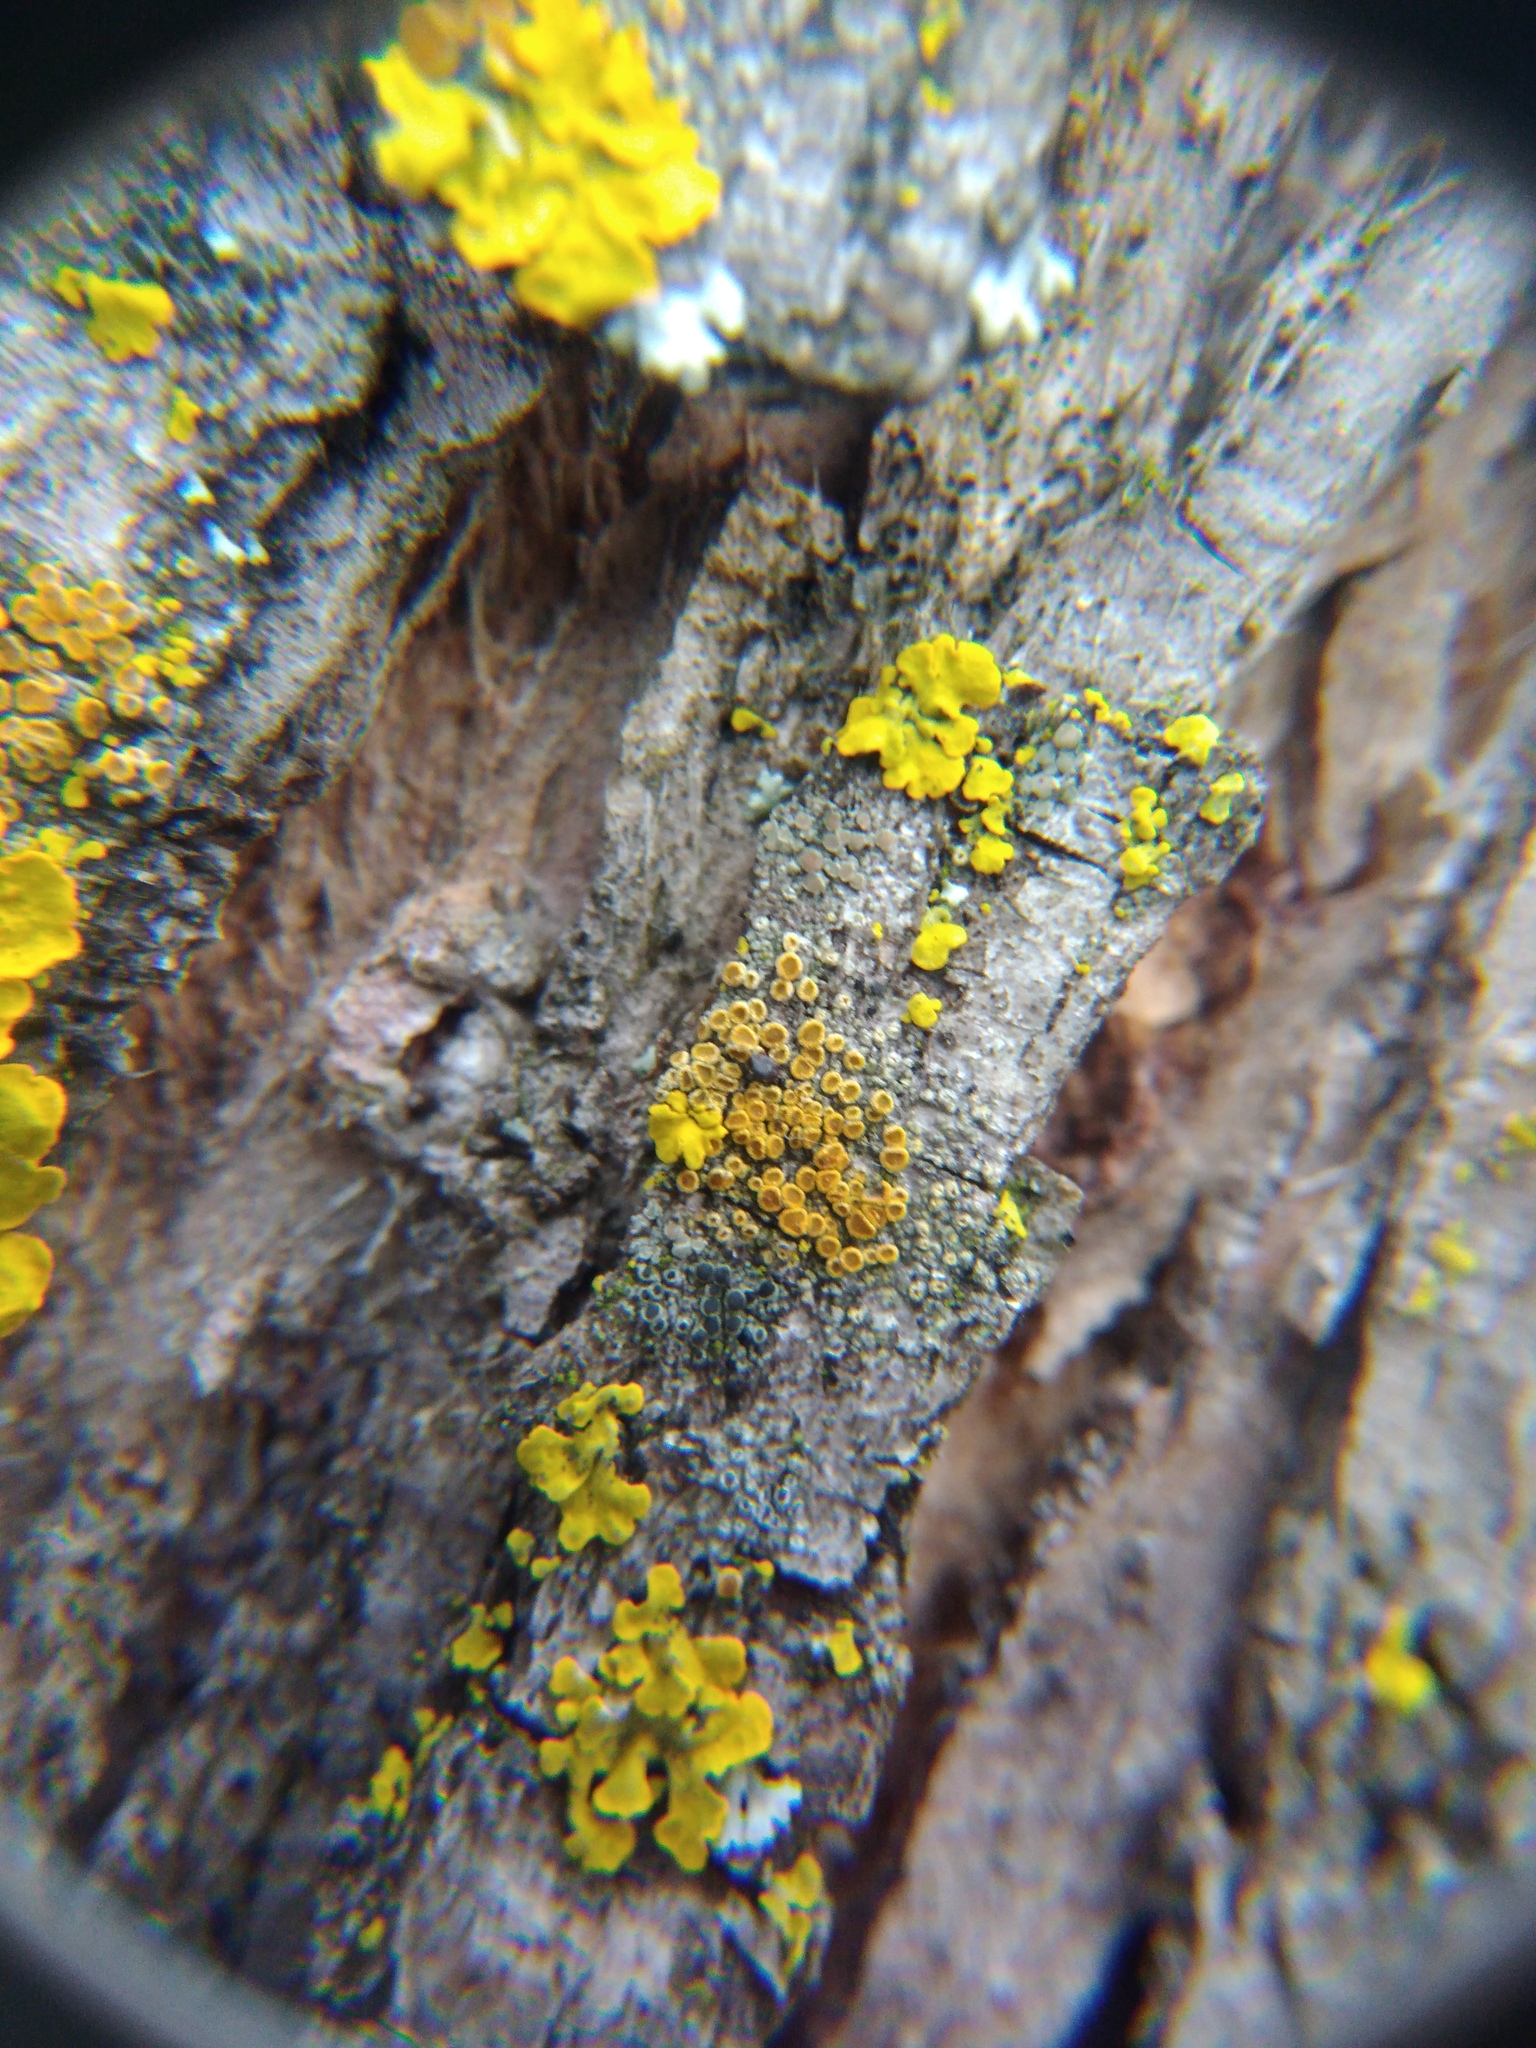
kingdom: Fungi
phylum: Ascomycota
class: Lecanoromycetes
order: Teloschistales
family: Teloschistaceae
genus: Athallia
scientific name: Athallia pyracea
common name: Flaming firedot lichen
